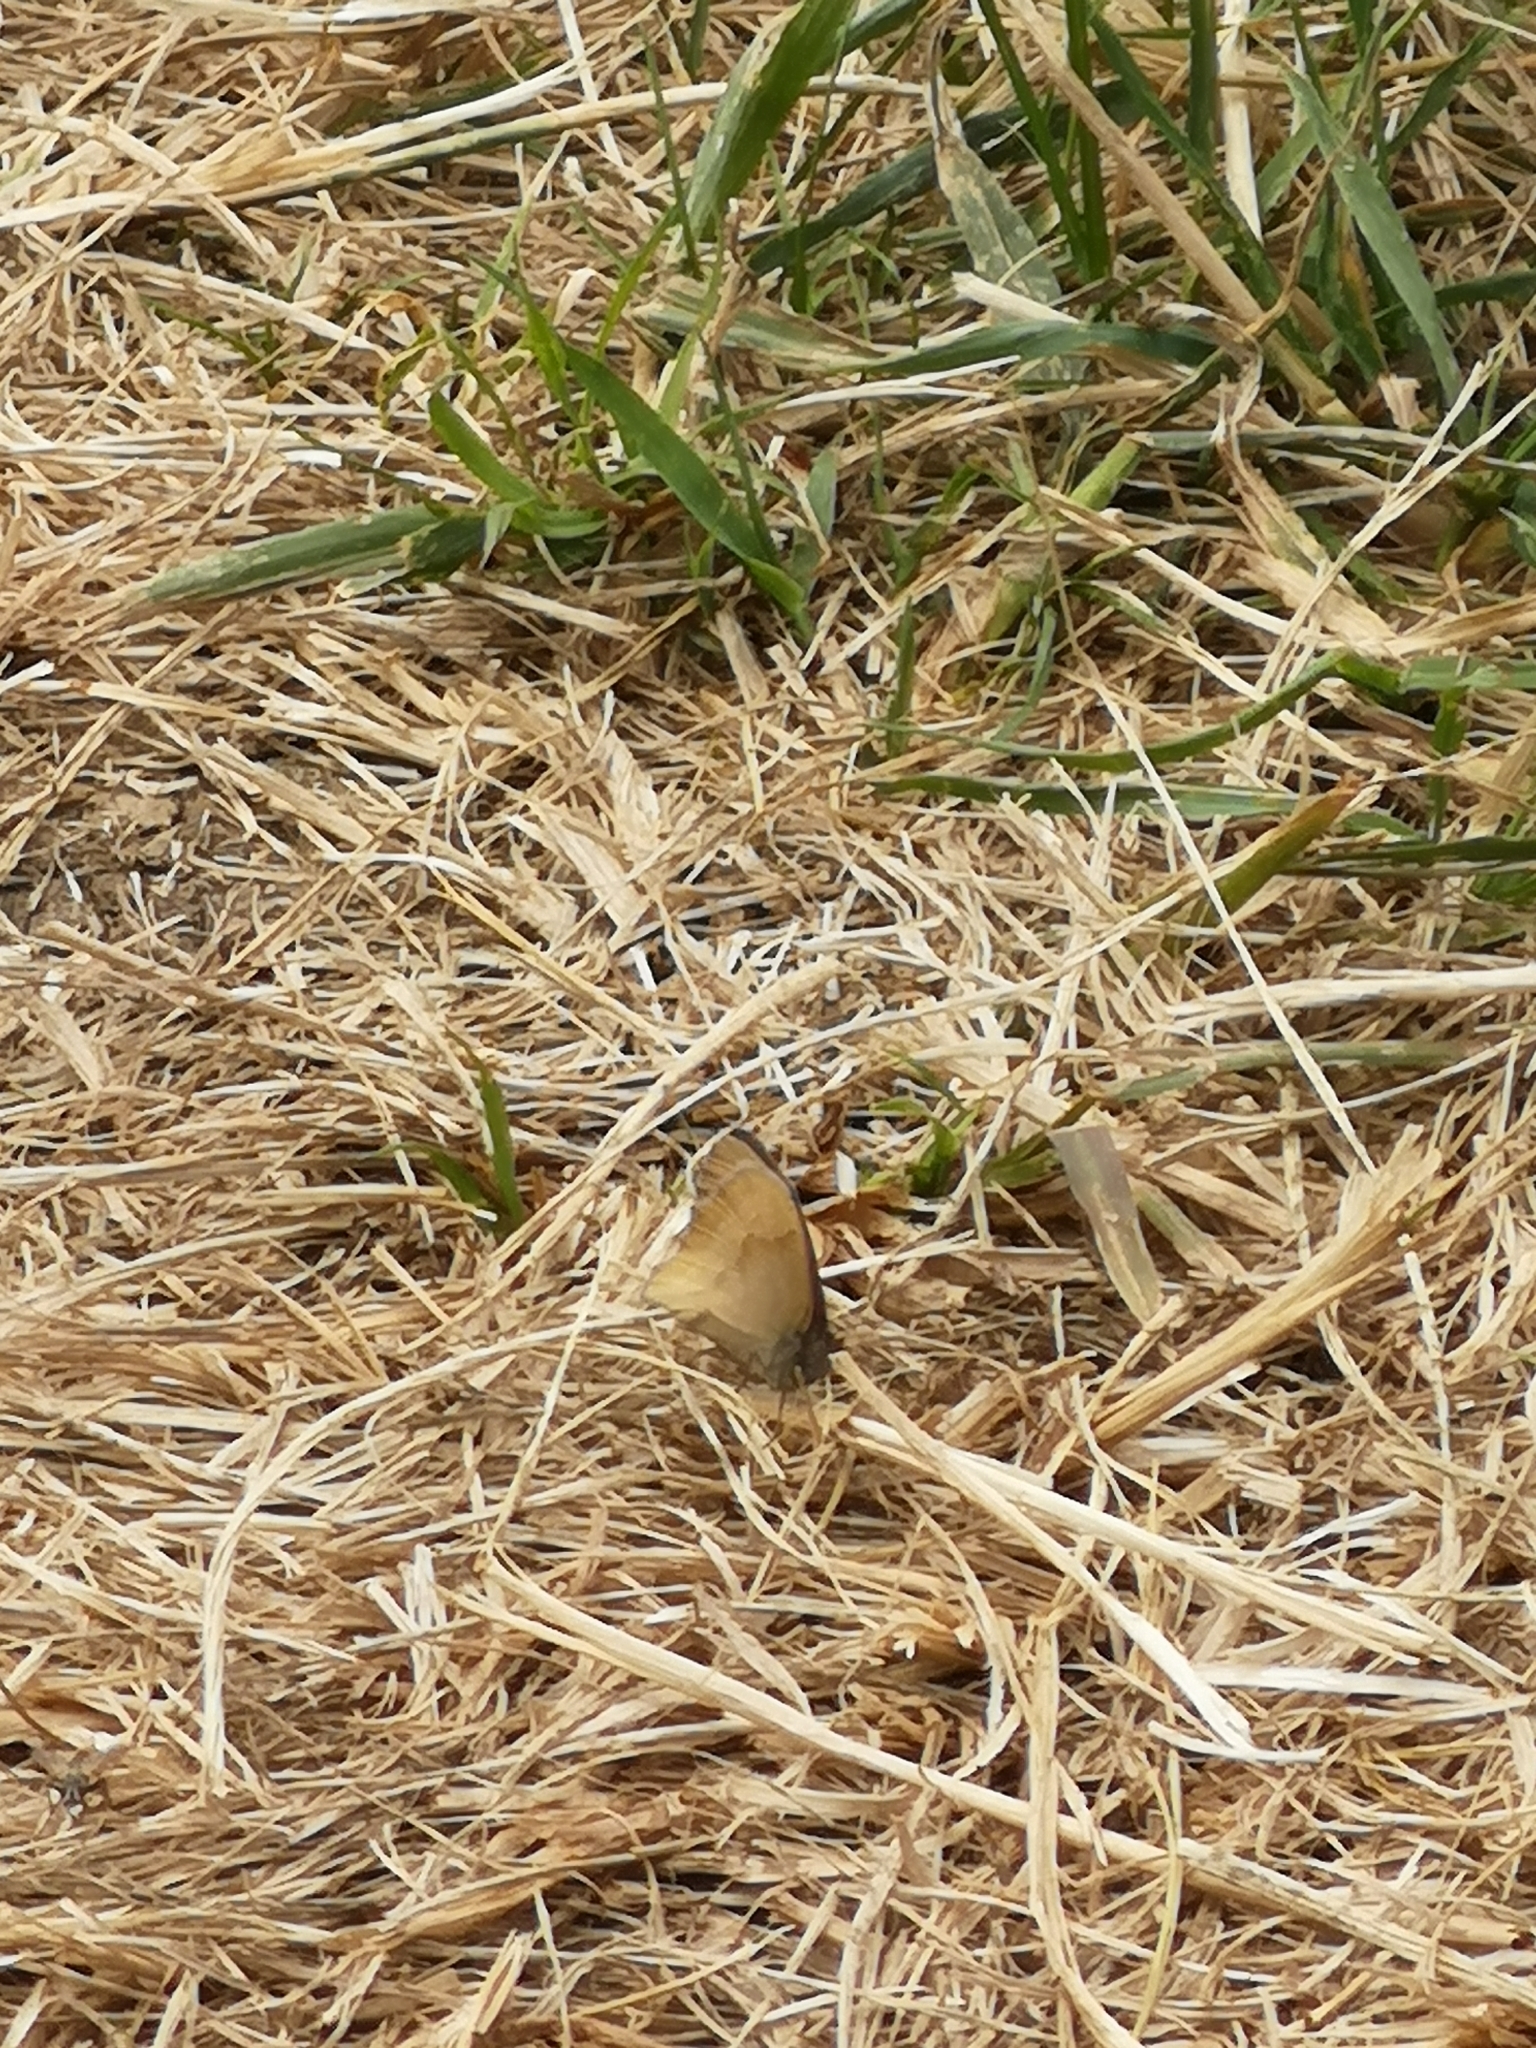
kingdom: Animalia
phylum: Arthropoda
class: Insecta
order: Lepidoptera
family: Nymphalidae
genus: Maniola
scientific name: Maniola jurtina
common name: Meadow brown
